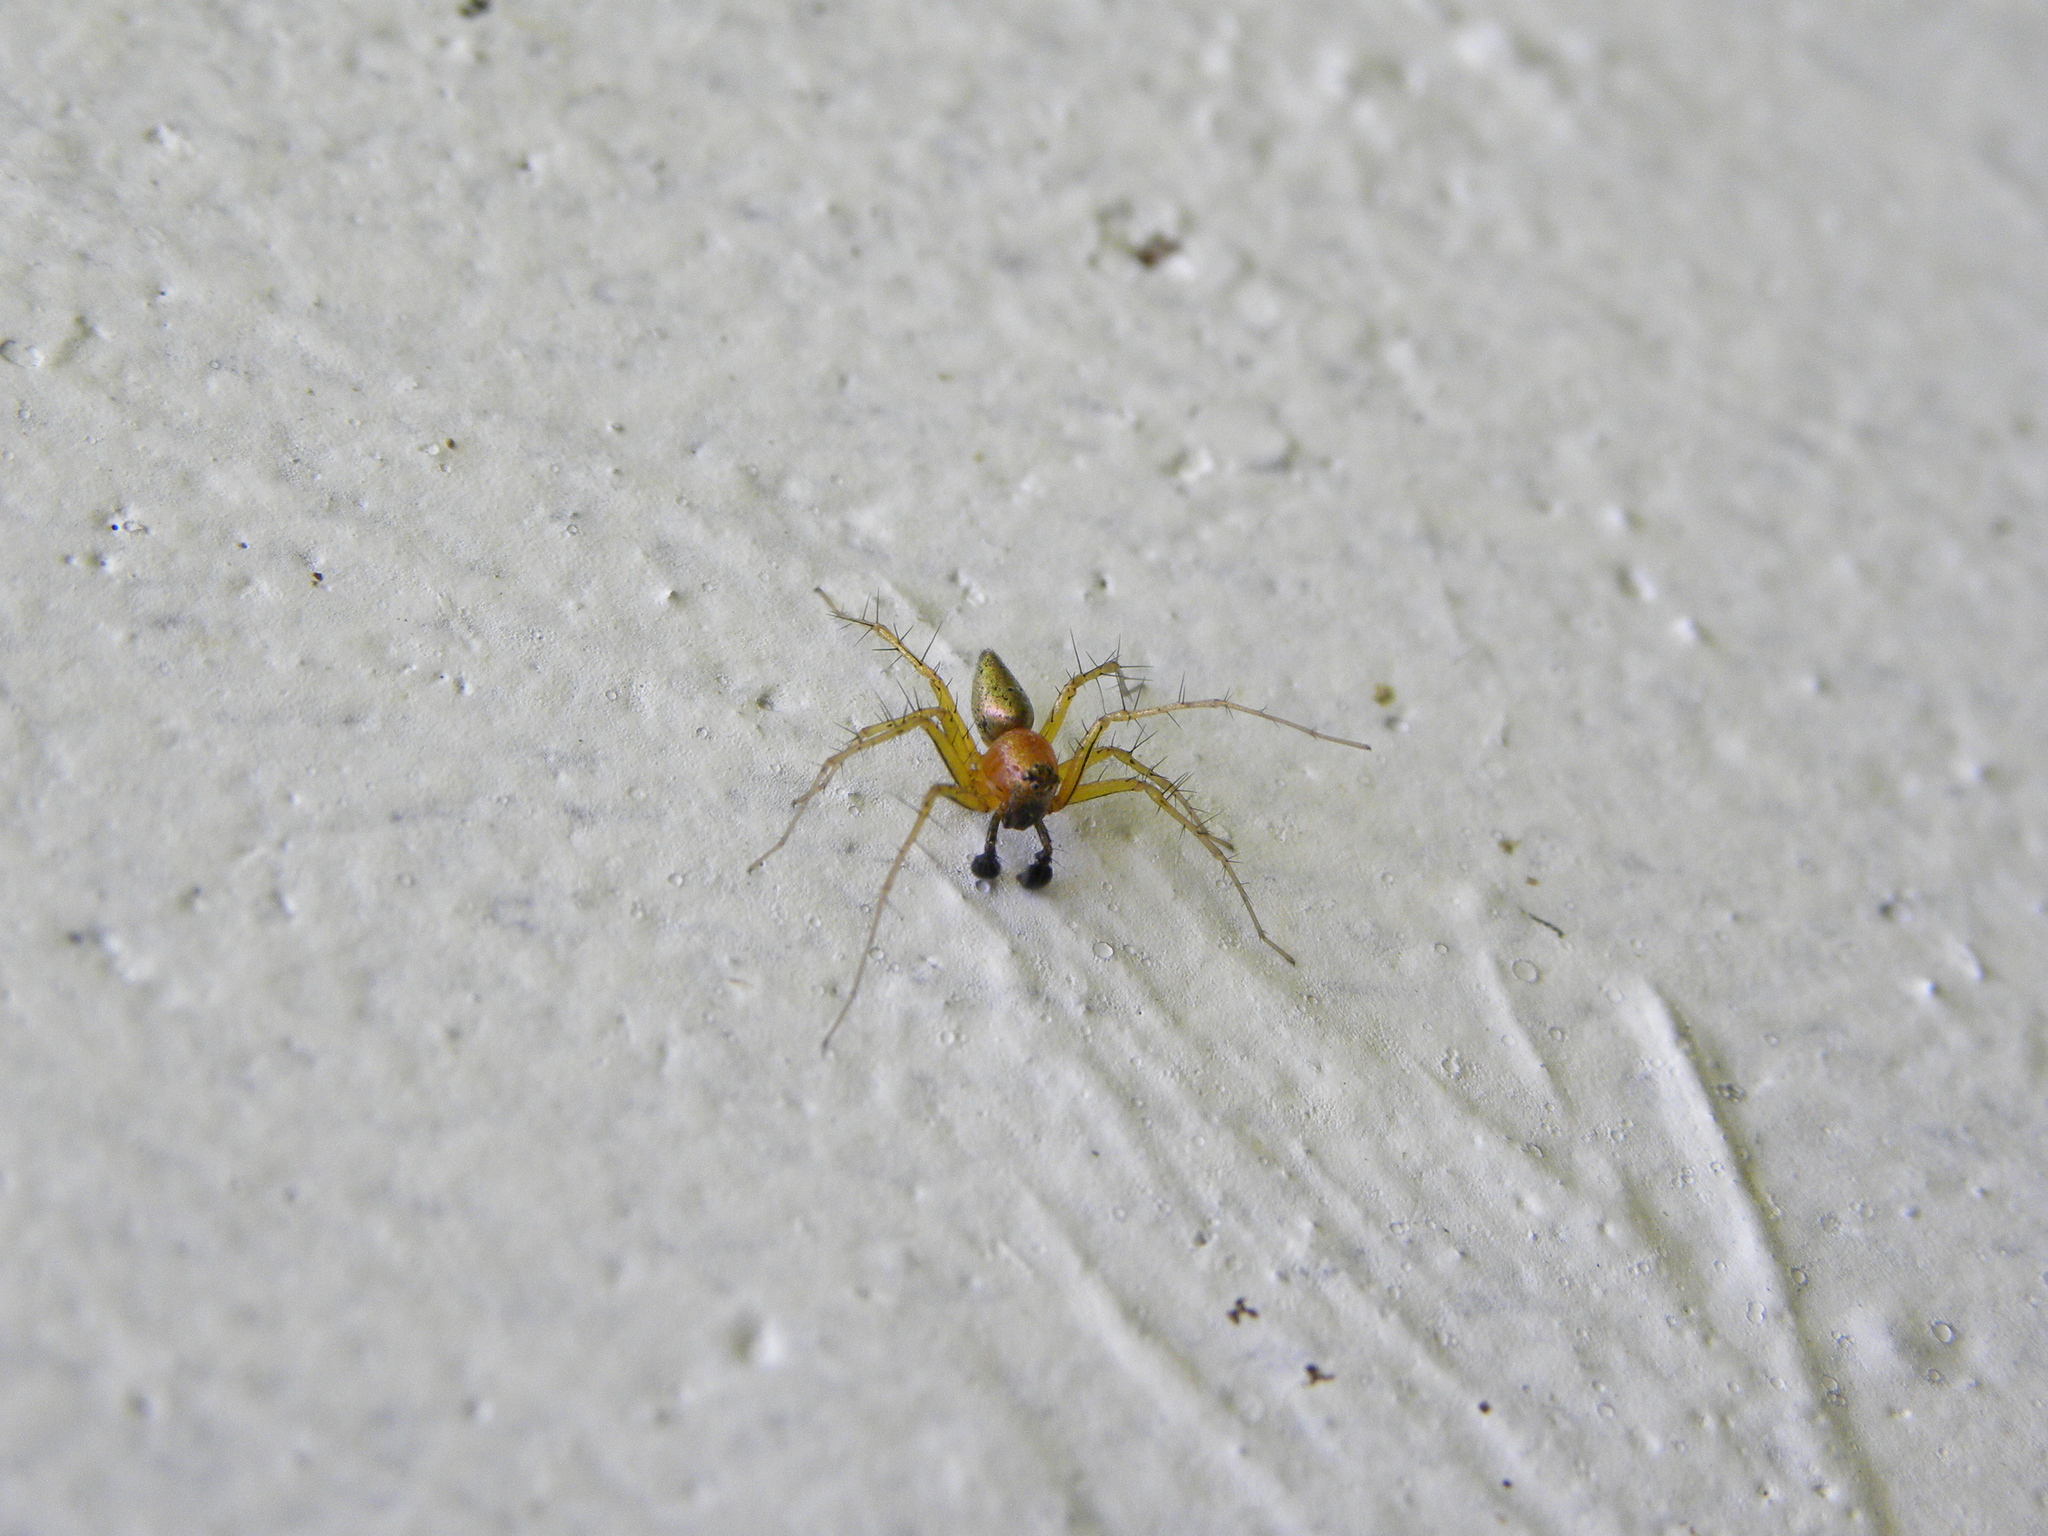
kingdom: Animalia
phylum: Arthropoda
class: Arachnida
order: Araneae
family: Oxyopidae
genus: Oxyopes
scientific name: Oxyopes salticus
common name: Lynx spiders
